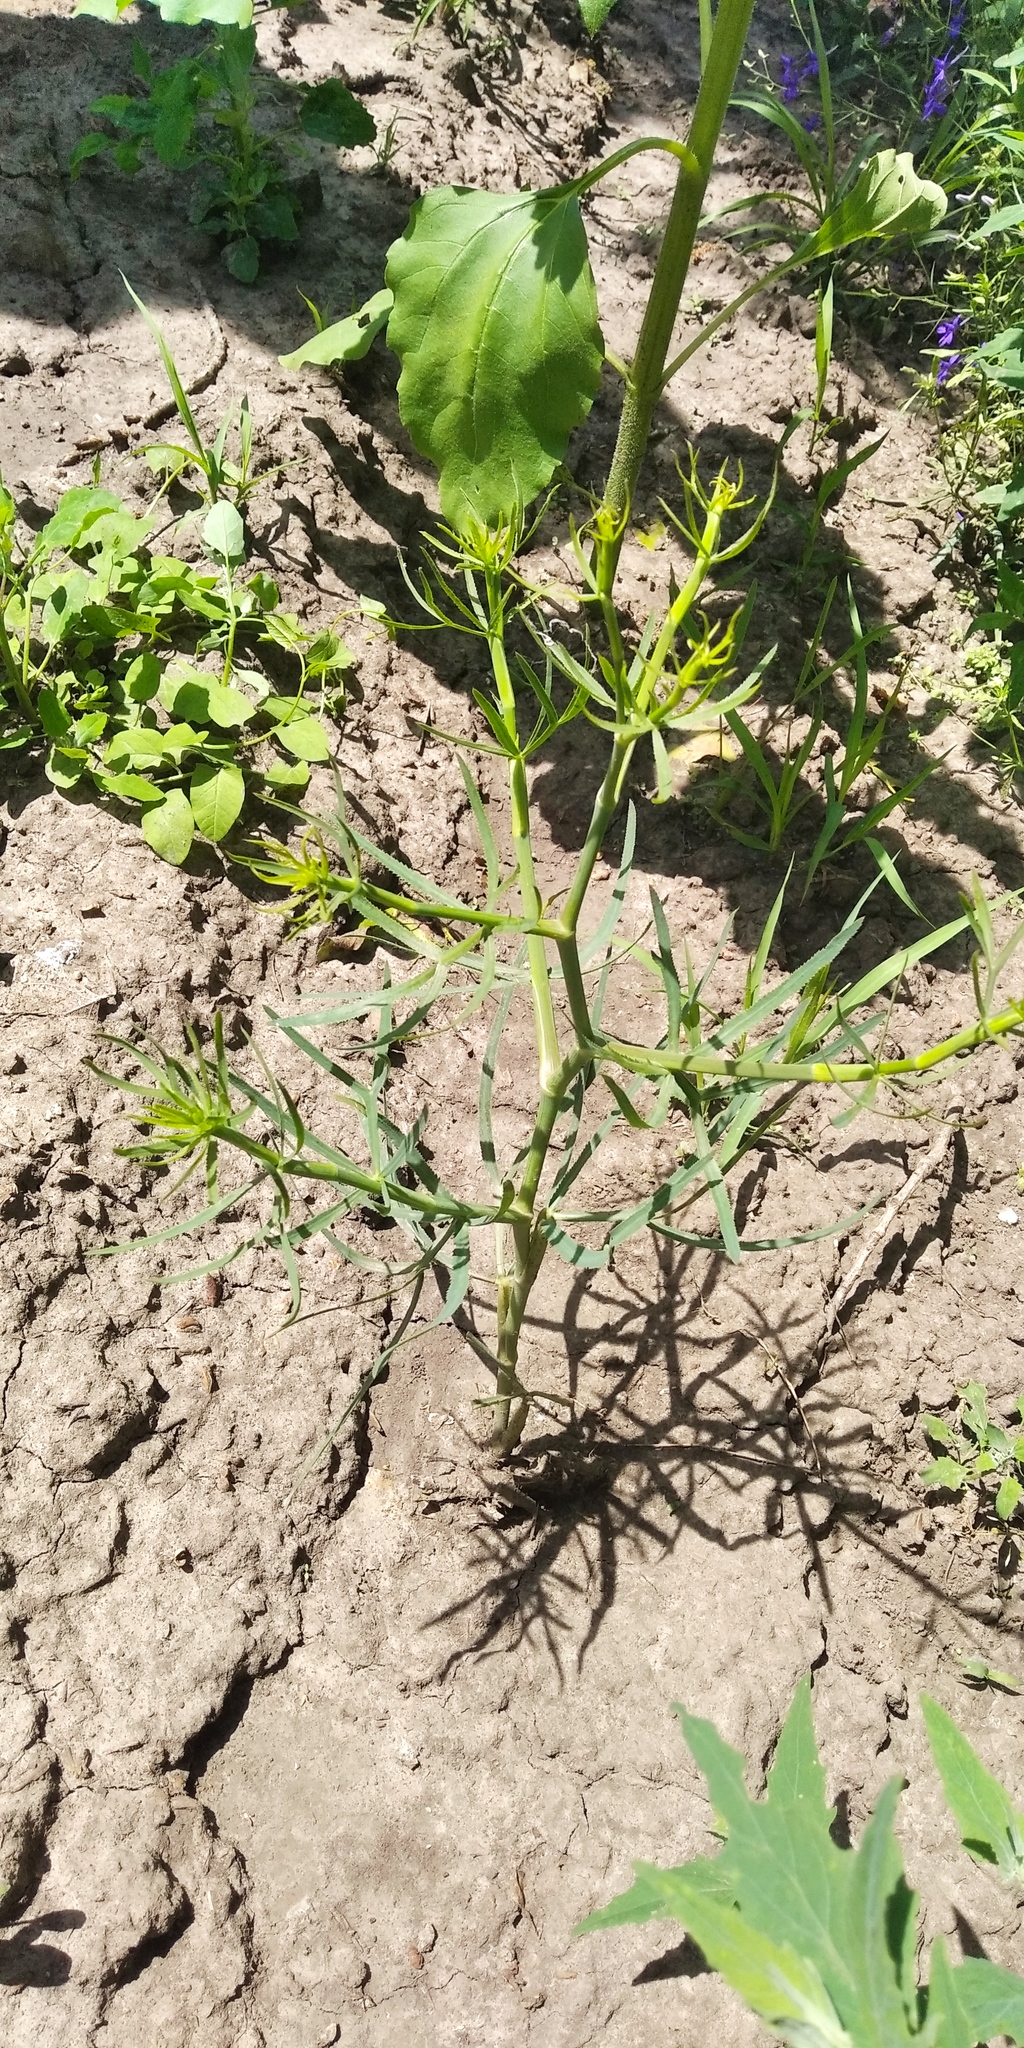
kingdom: Plantae
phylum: Tracheophyta
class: Magnoliopsida
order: Apiales
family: Apiaceae
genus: Falcaria
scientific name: Falcaria vulgaris
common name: Longleaf
